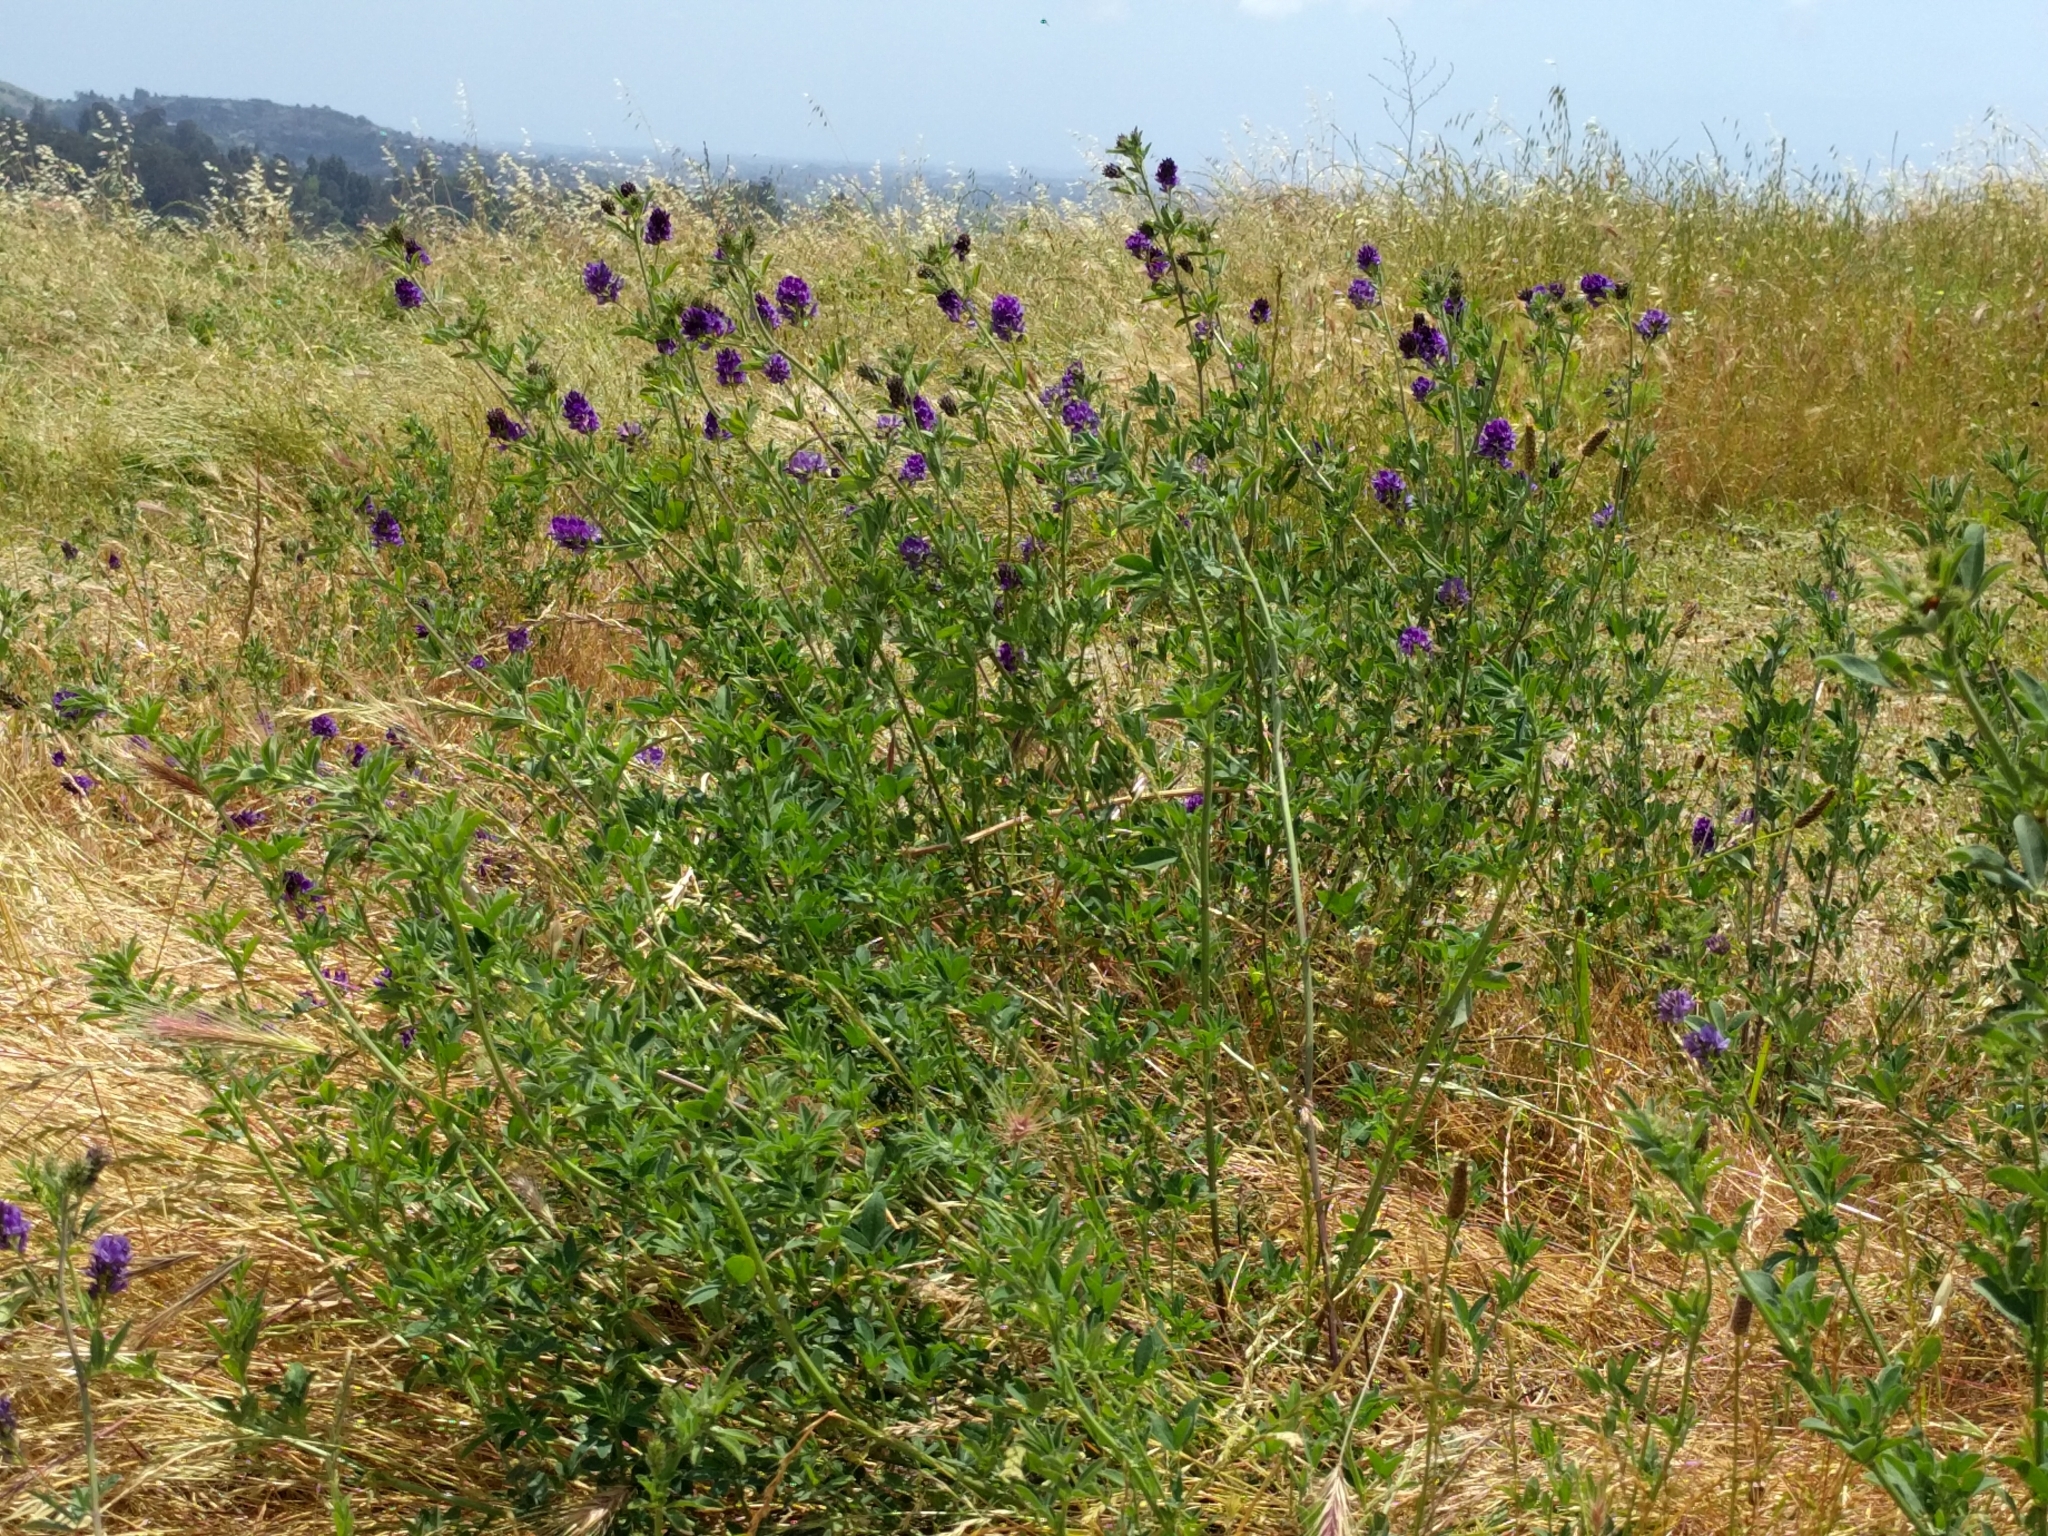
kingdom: Plantae
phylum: Tracheophyta
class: Magnoliopsida
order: Fabales
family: Fabaceae
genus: Medicago
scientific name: Medicago sativa
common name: Alfalfa
